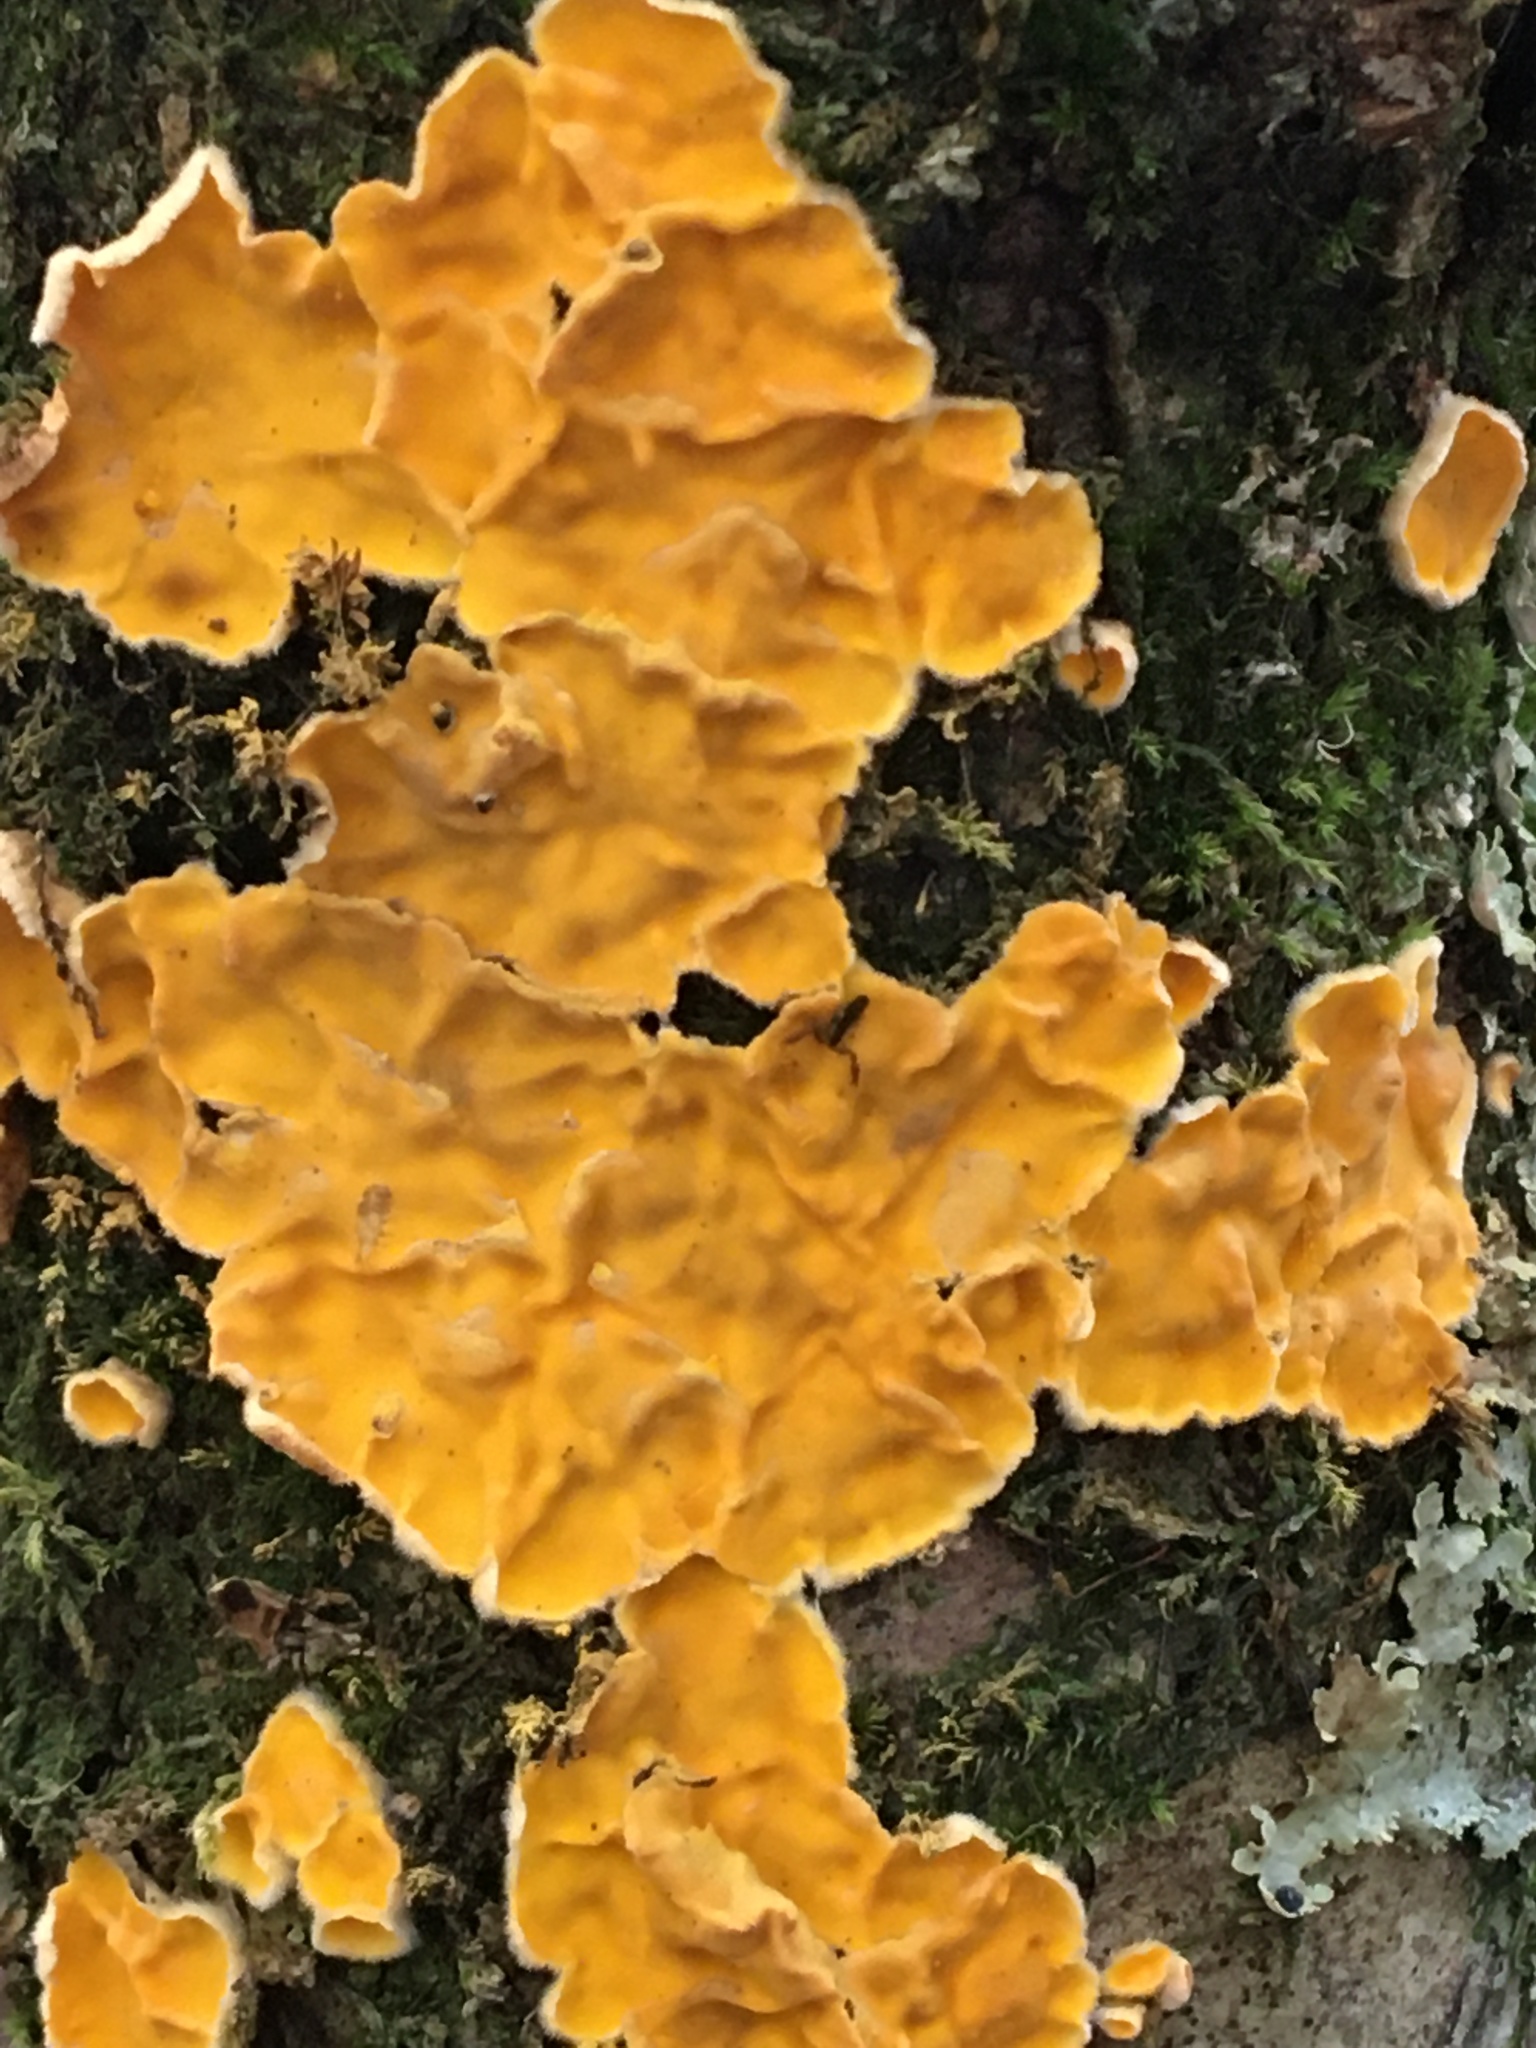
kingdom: Fungi
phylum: Basidiomycota
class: Agaricomycetes
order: Russulales
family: Stereaceae
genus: Stereodiscus
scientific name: Stereodiscus limonisporus
